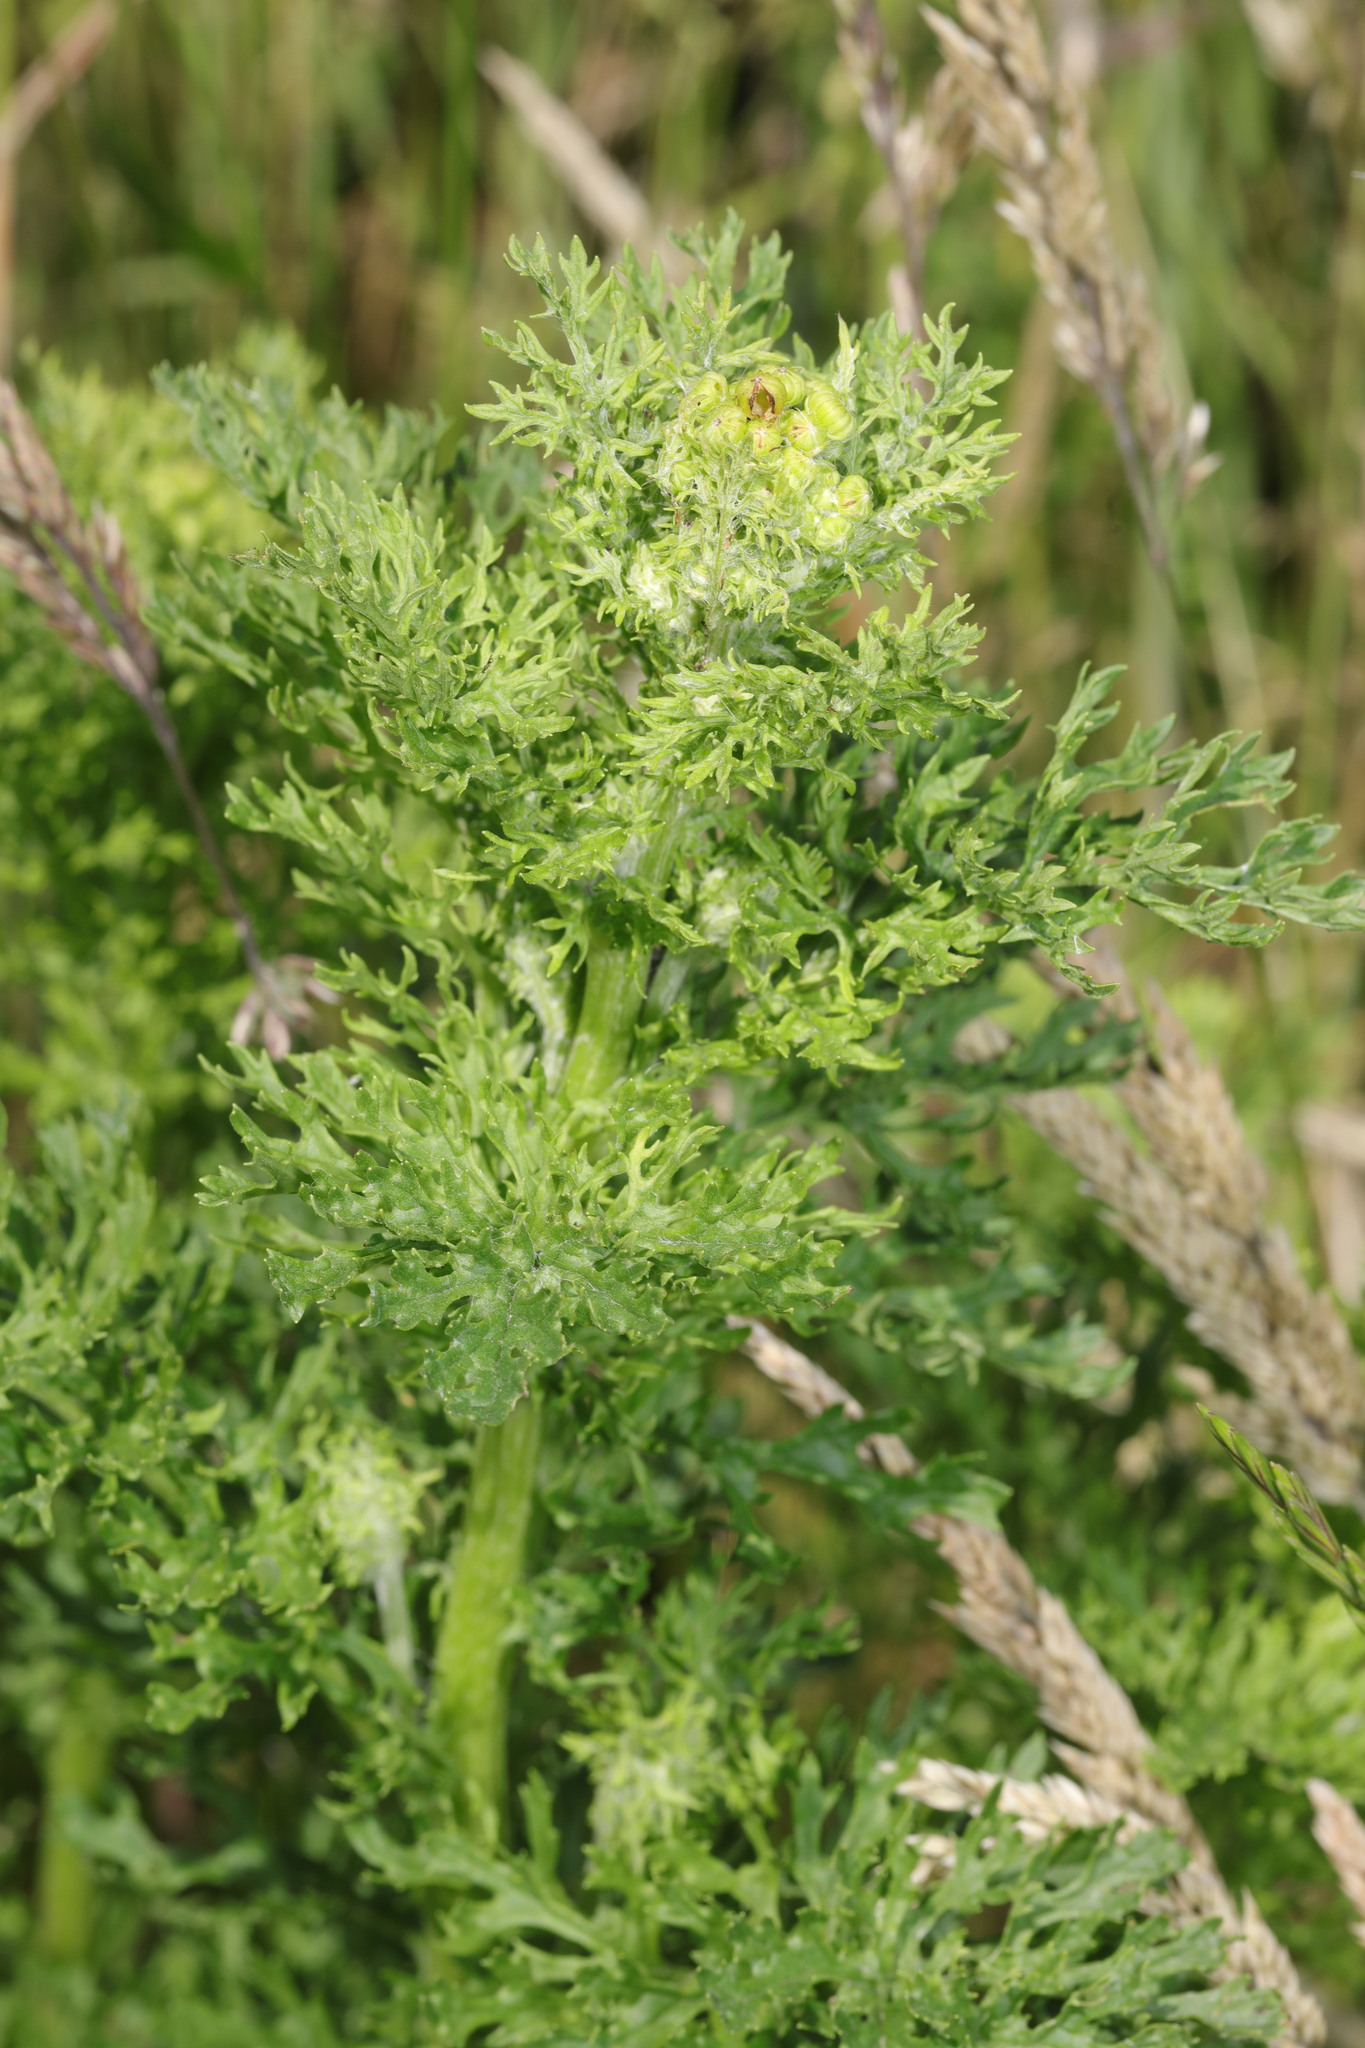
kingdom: Plantae
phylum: Tracheophyta
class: Magnoliopsida
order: Asterales
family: Asteraceae
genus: Jacobaea
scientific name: Jacobaea vulgaris
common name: Stinking willie
